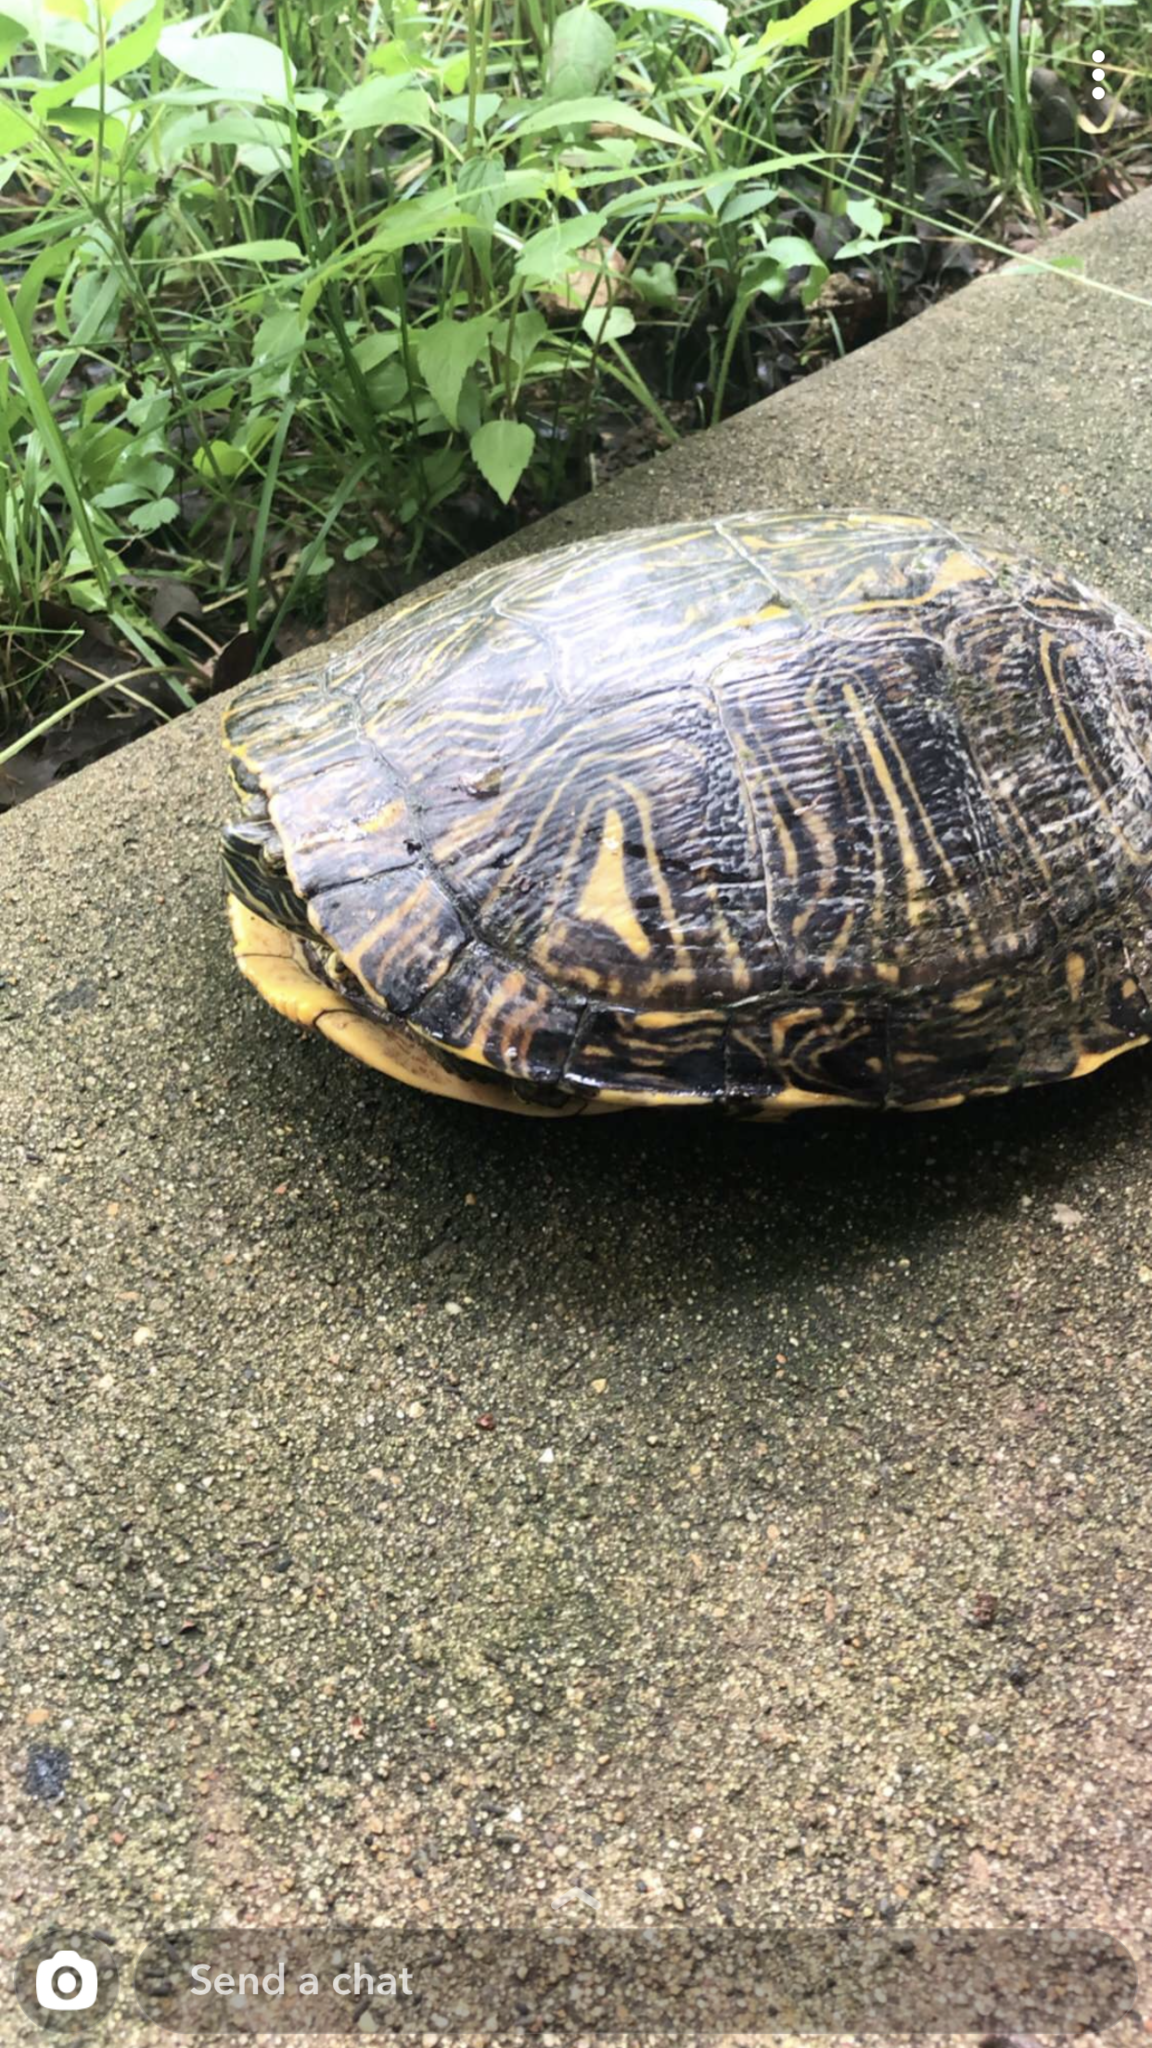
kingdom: Animalia
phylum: Chordata
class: Testudines
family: Emydidae
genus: Trachemys
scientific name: Trachemys scripta
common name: Slider
